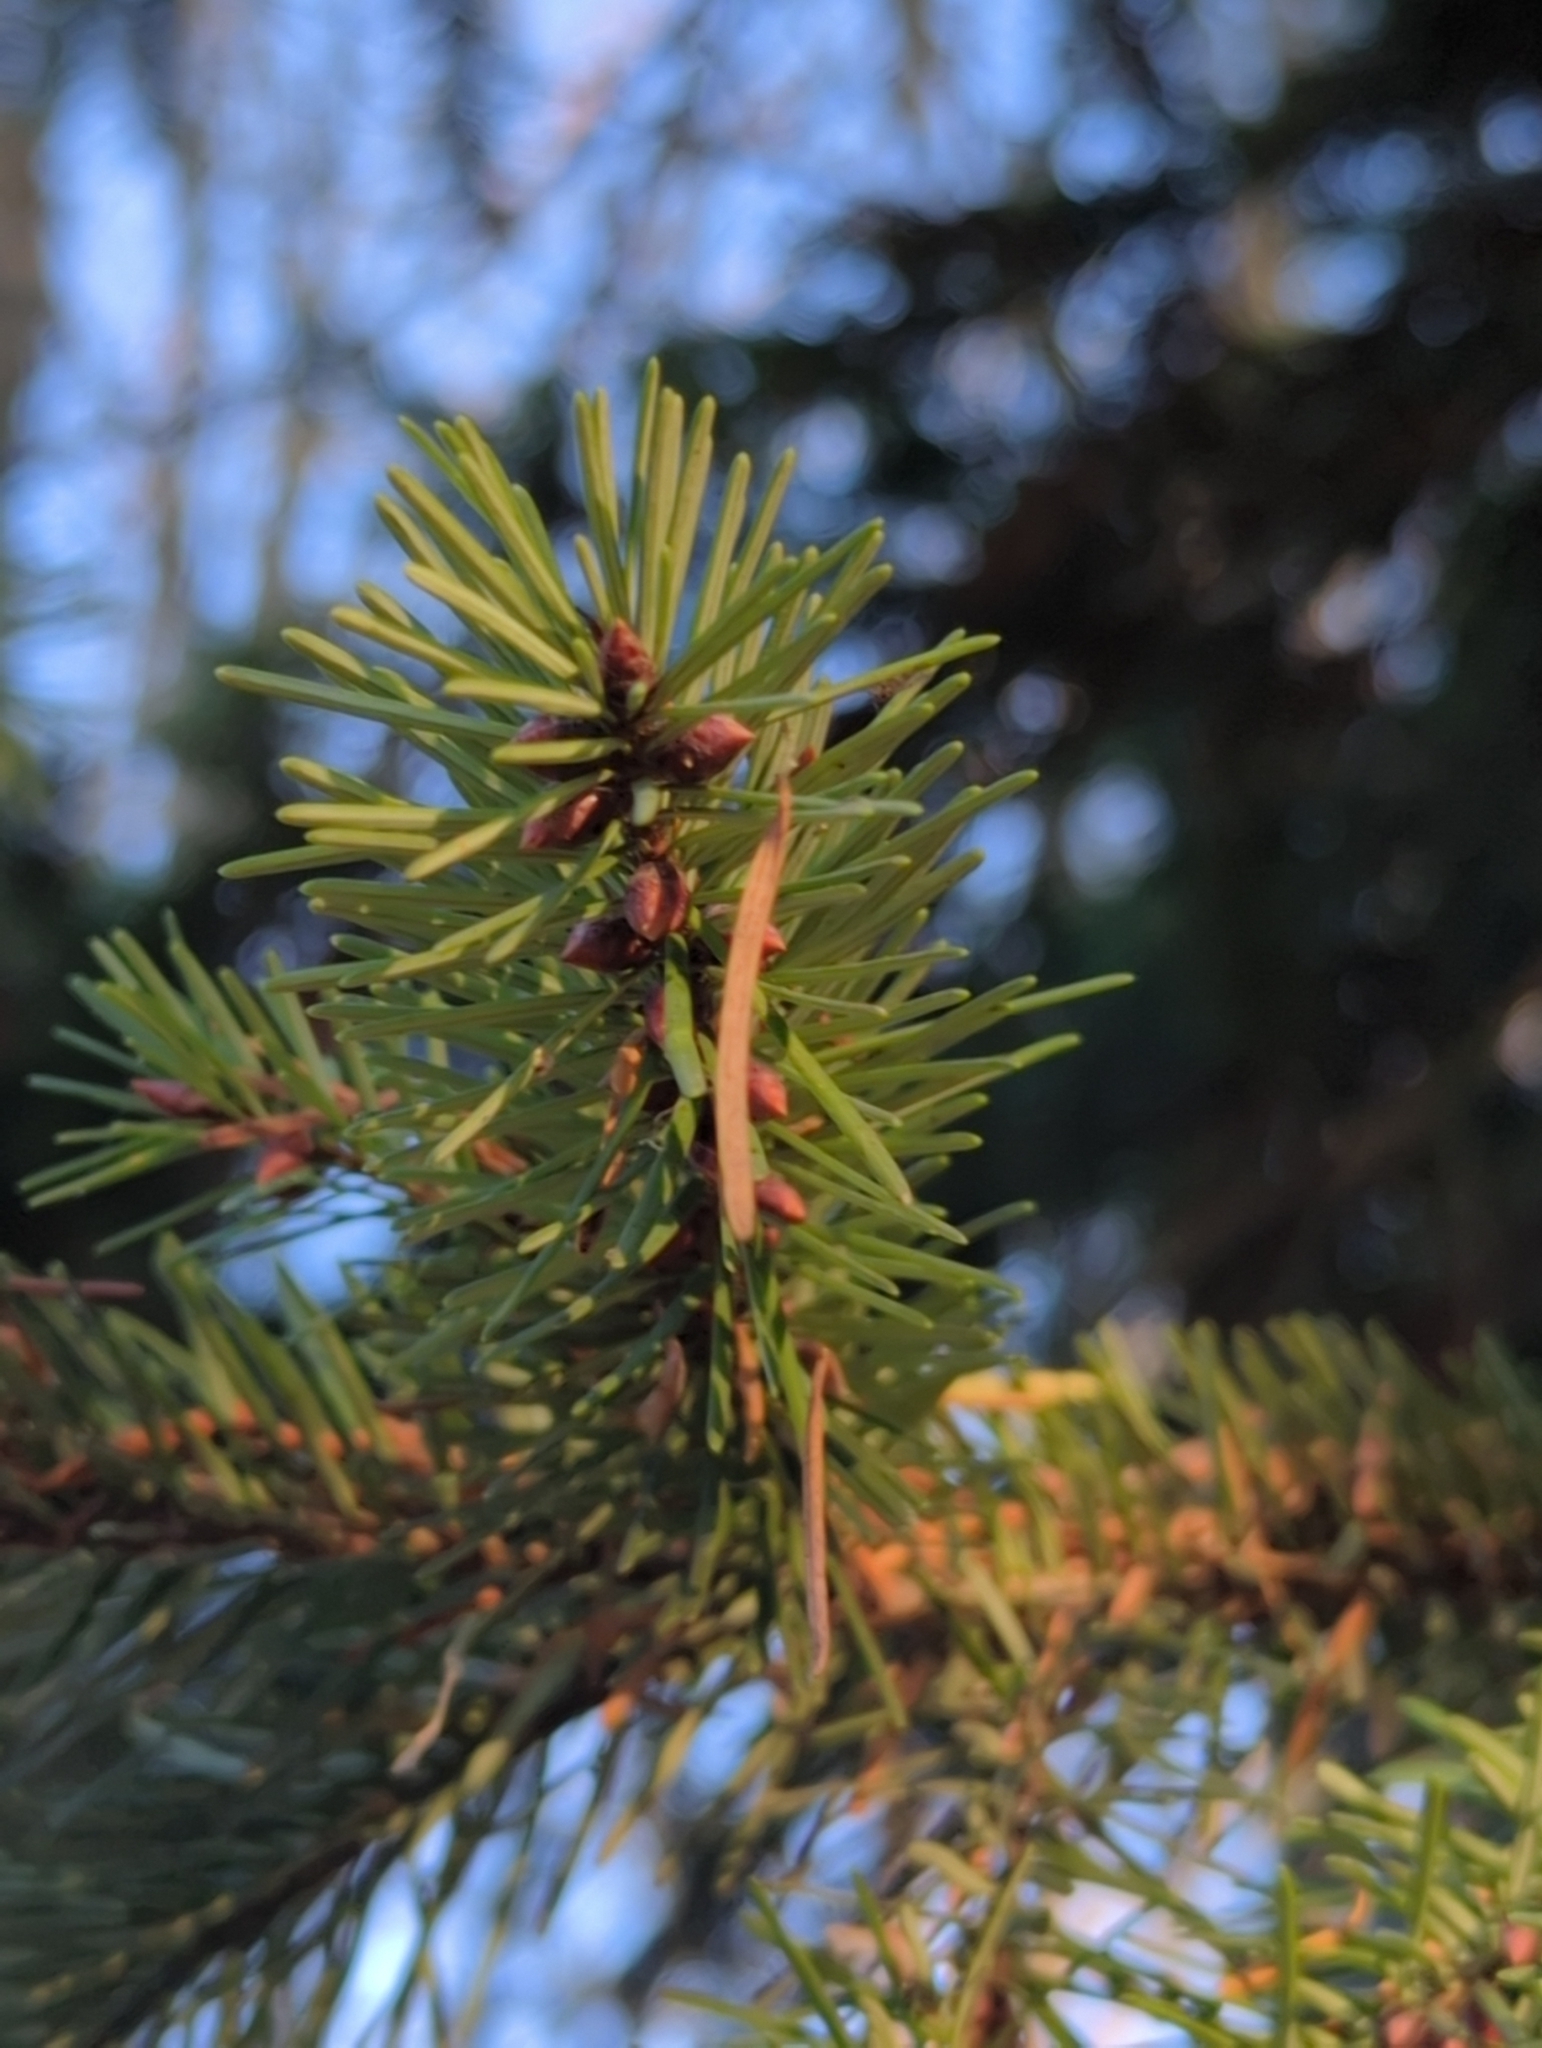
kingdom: Plantae
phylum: Tracheophyta
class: Pinopsida
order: Pinales
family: Pinaceae
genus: Pseudotsuga
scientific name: Pseudotsuga menziesii
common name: Douglas fir
